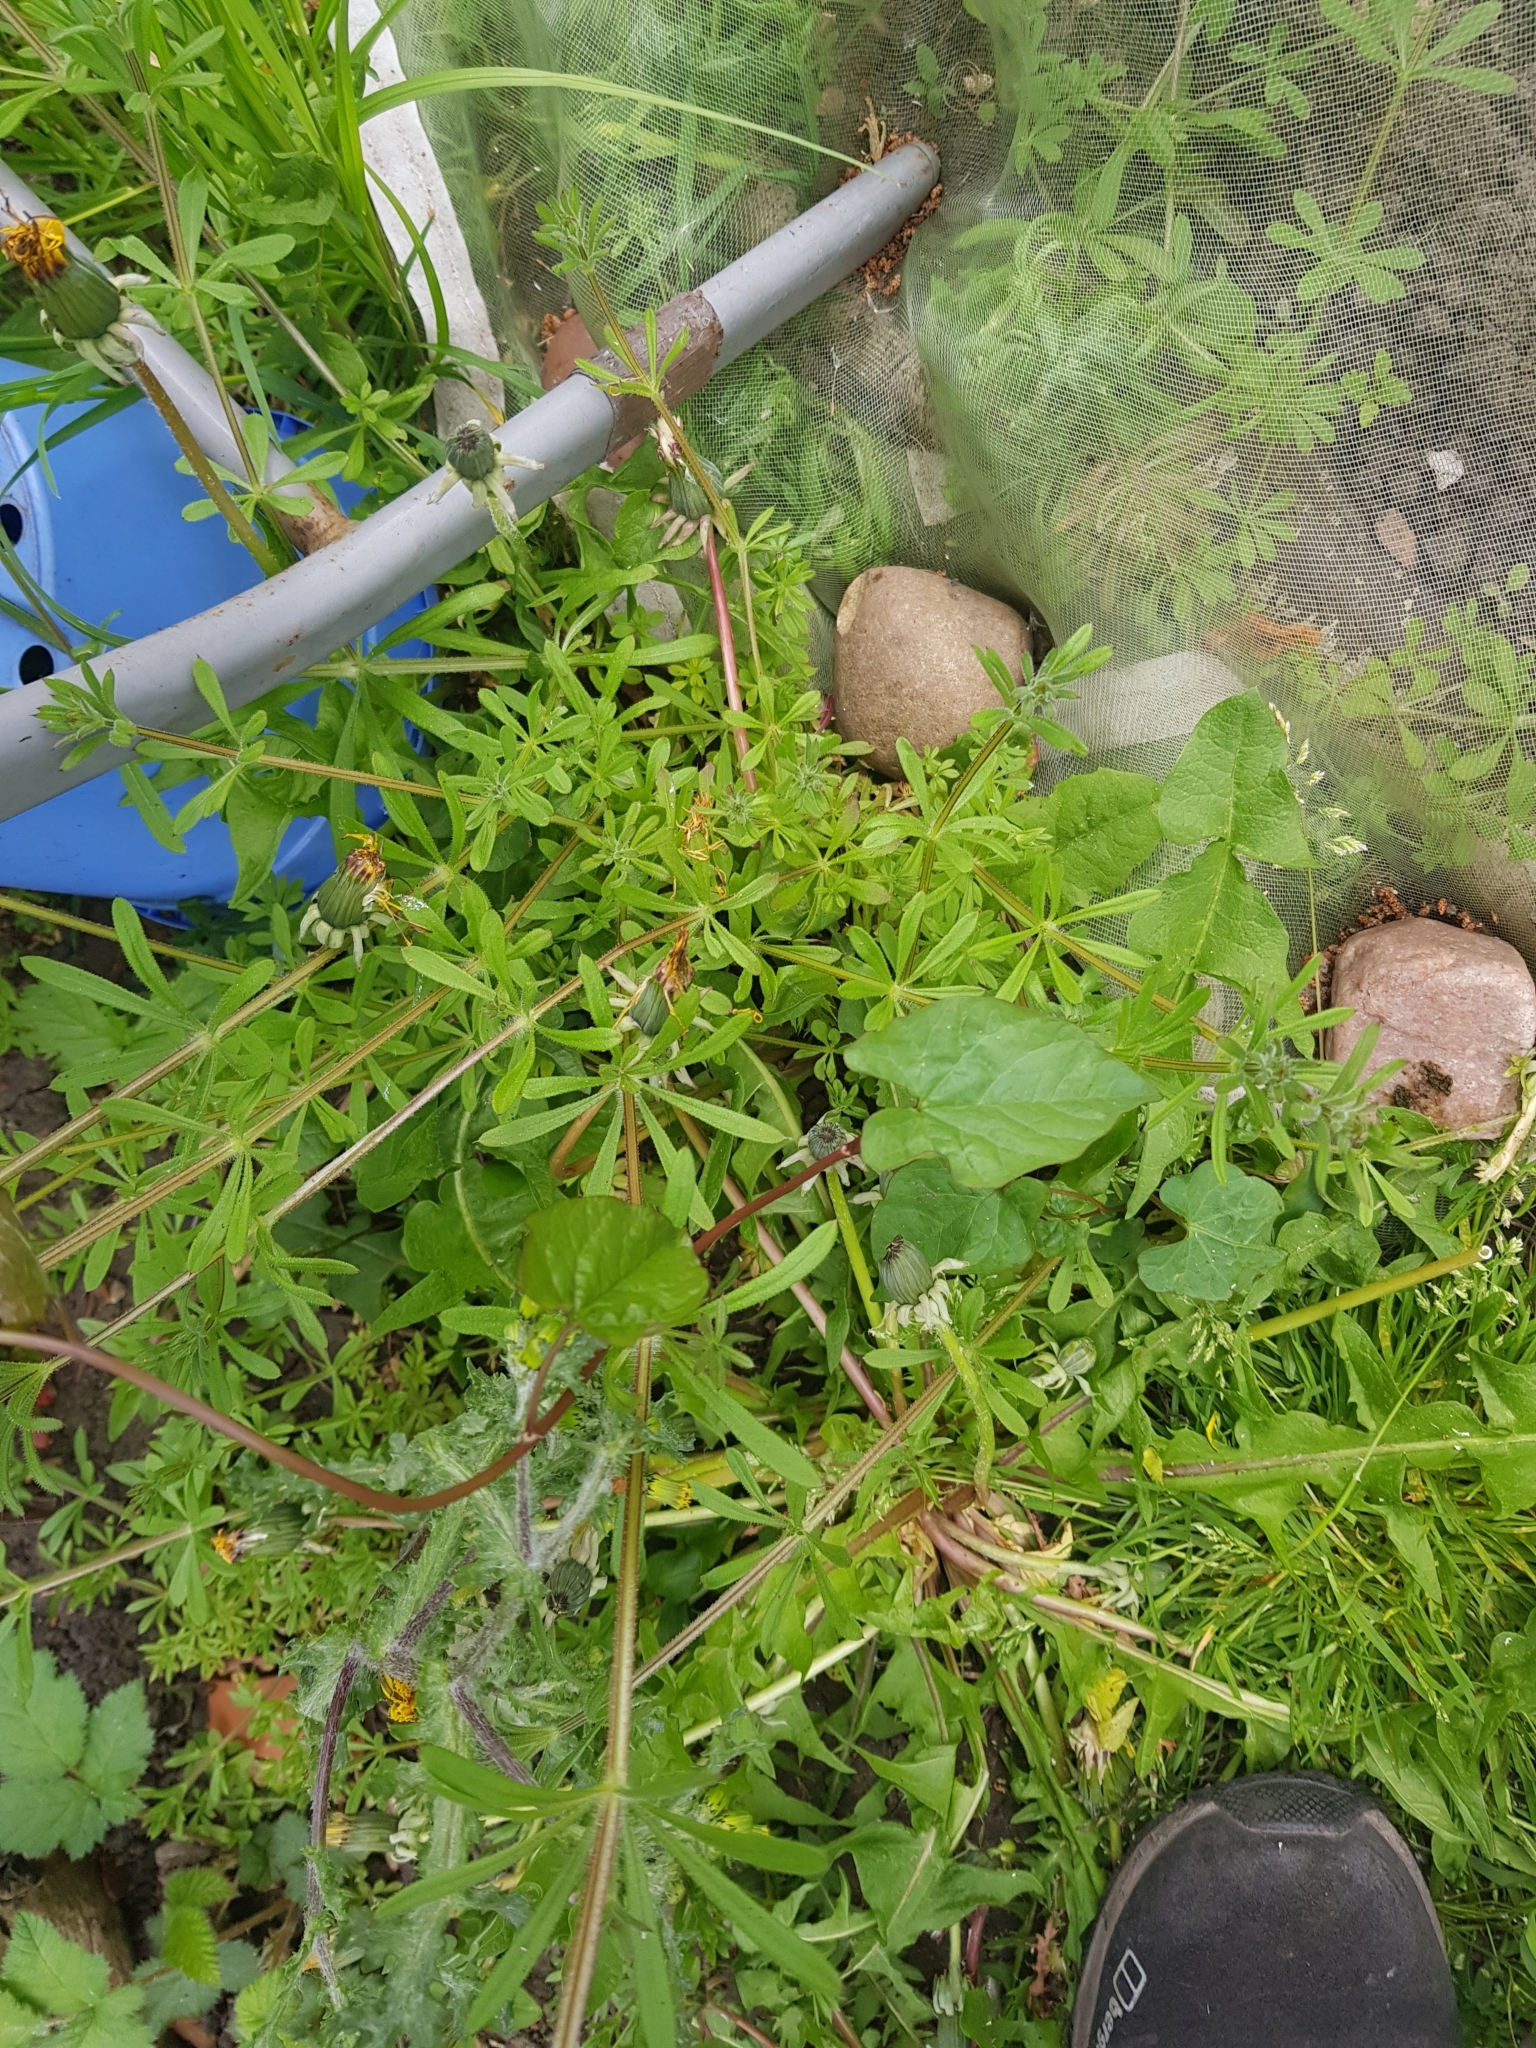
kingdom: Plantae
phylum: Tracheophyta
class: Magnoliopsida
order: Solanales
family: Convolvulaceae
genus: Calystegia
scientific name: Calystegia
